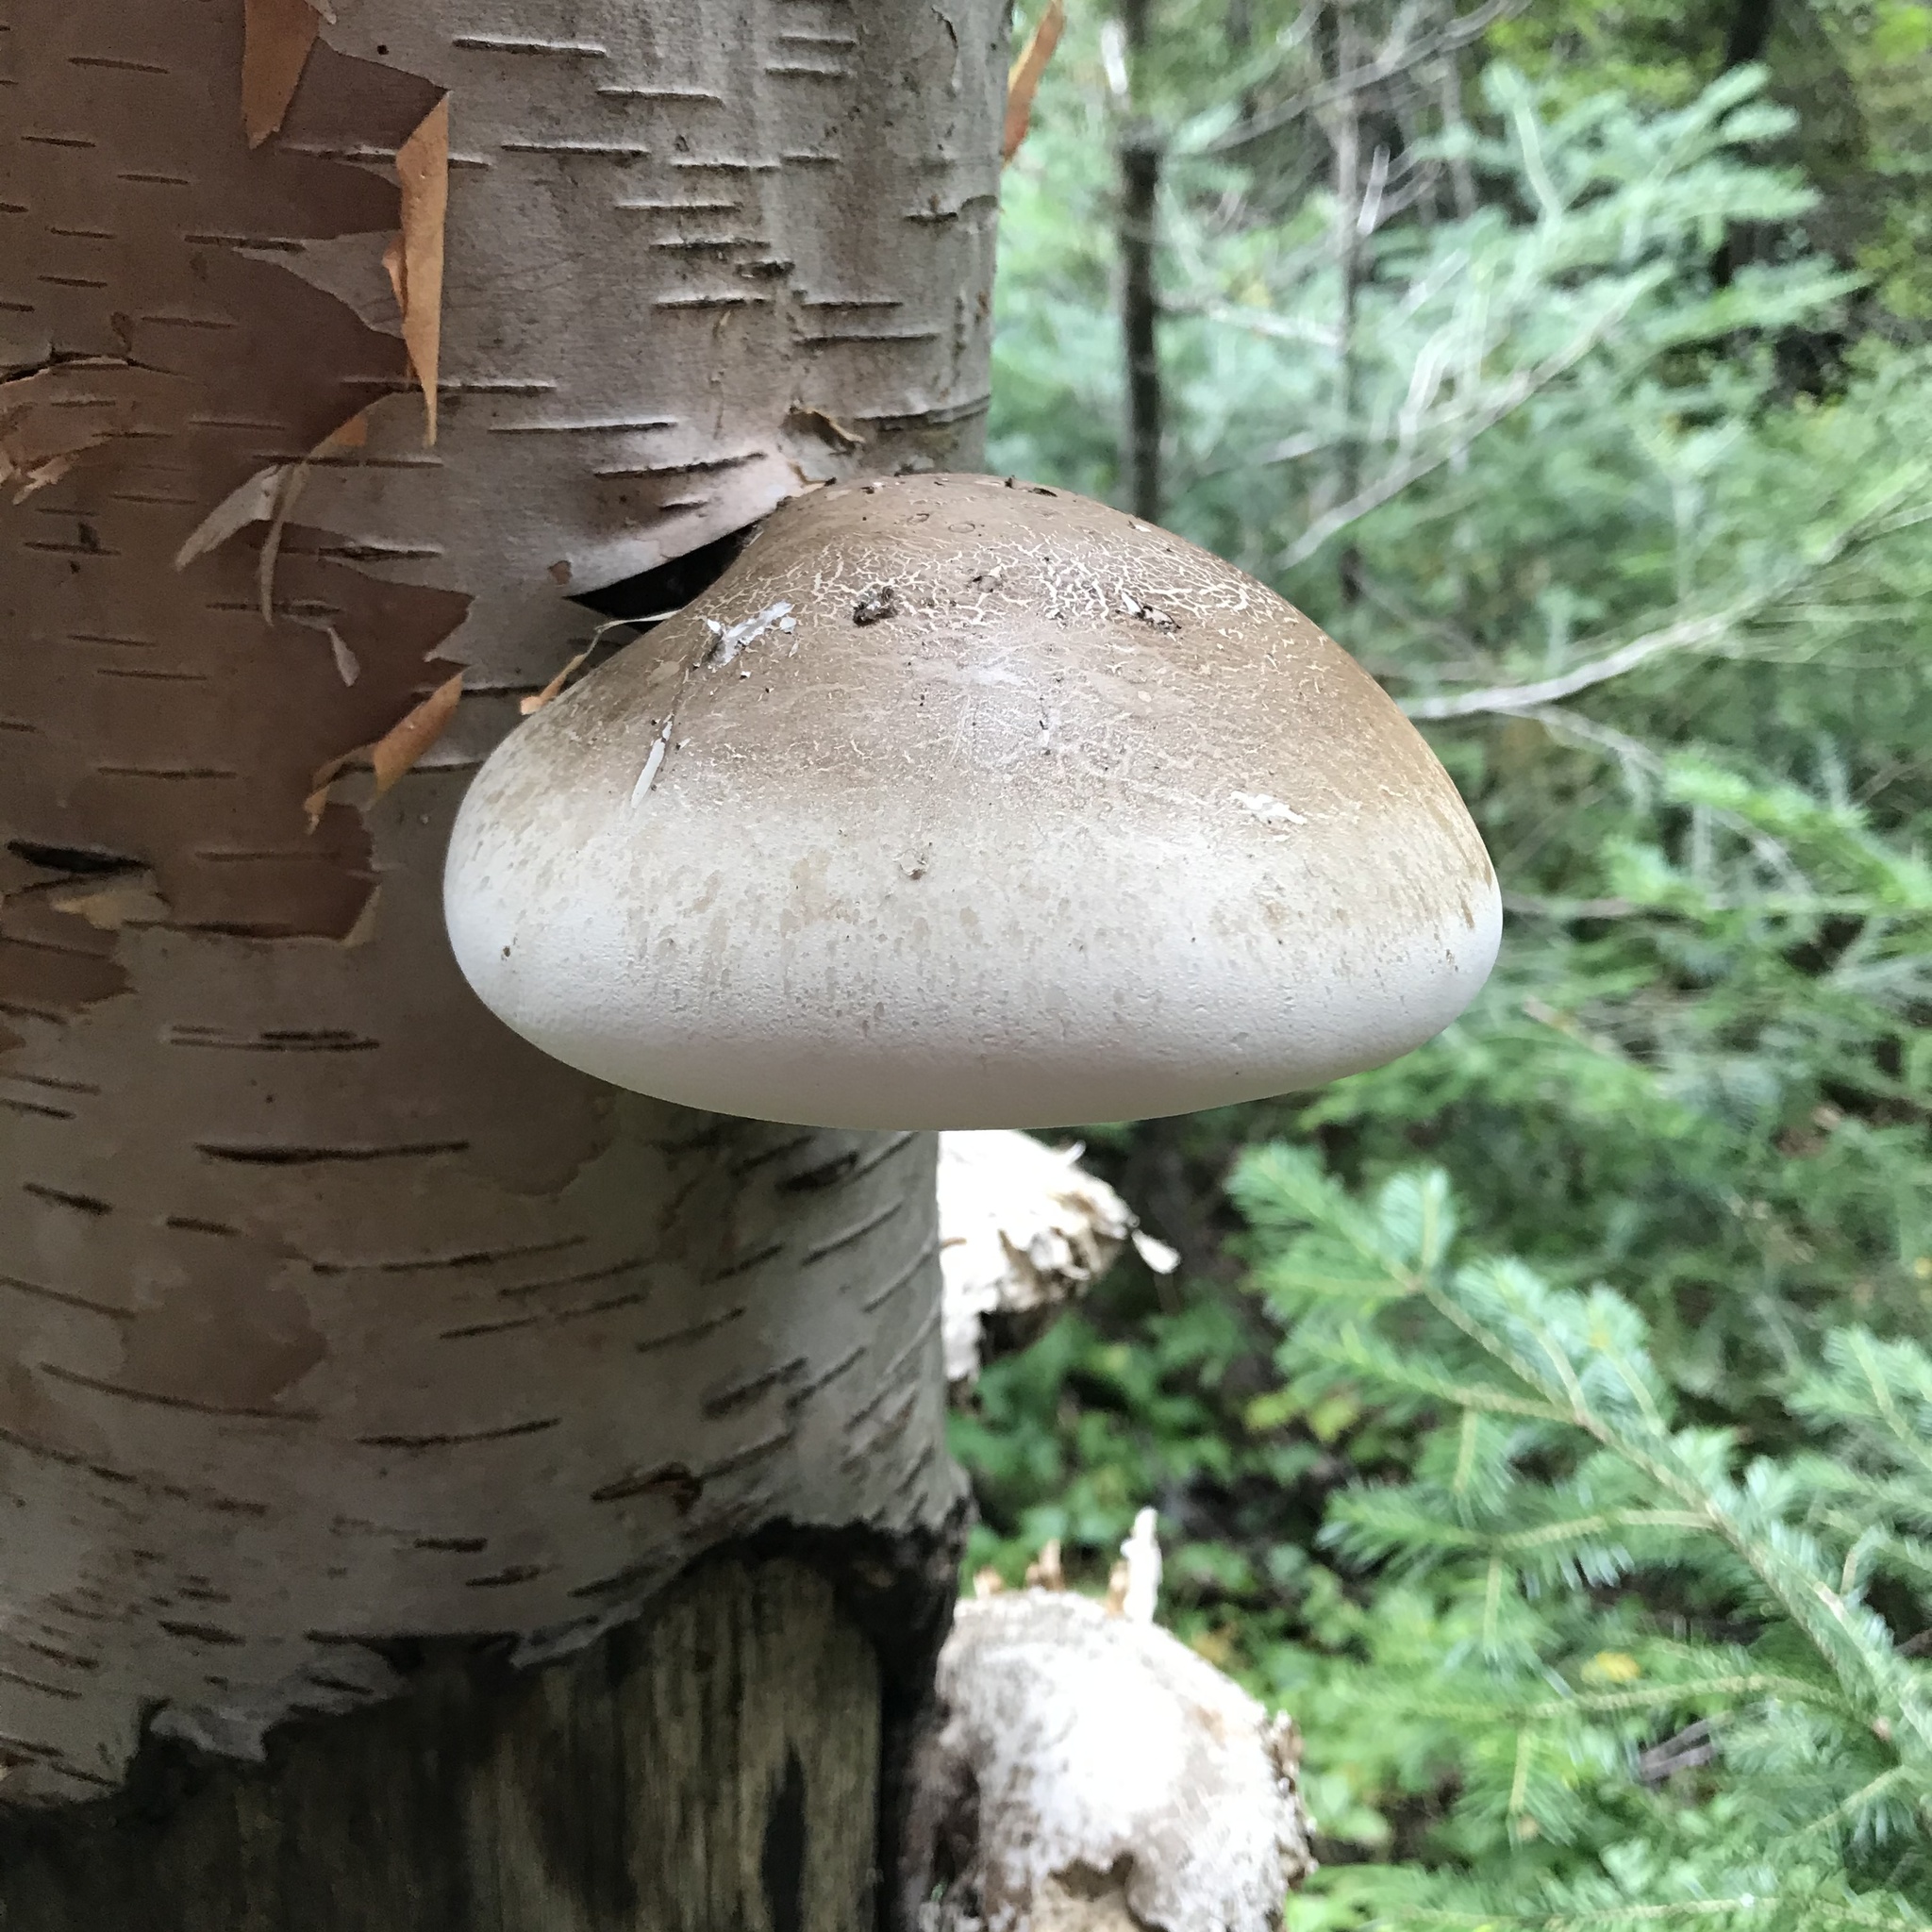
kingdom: Fungi
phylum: Basidiomycota
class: Agaricomycetes
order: Polyporales
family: Fomitopsidaceae
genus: Fomitopsis
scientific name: Fomitopsis betulina
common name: Birch polypore
